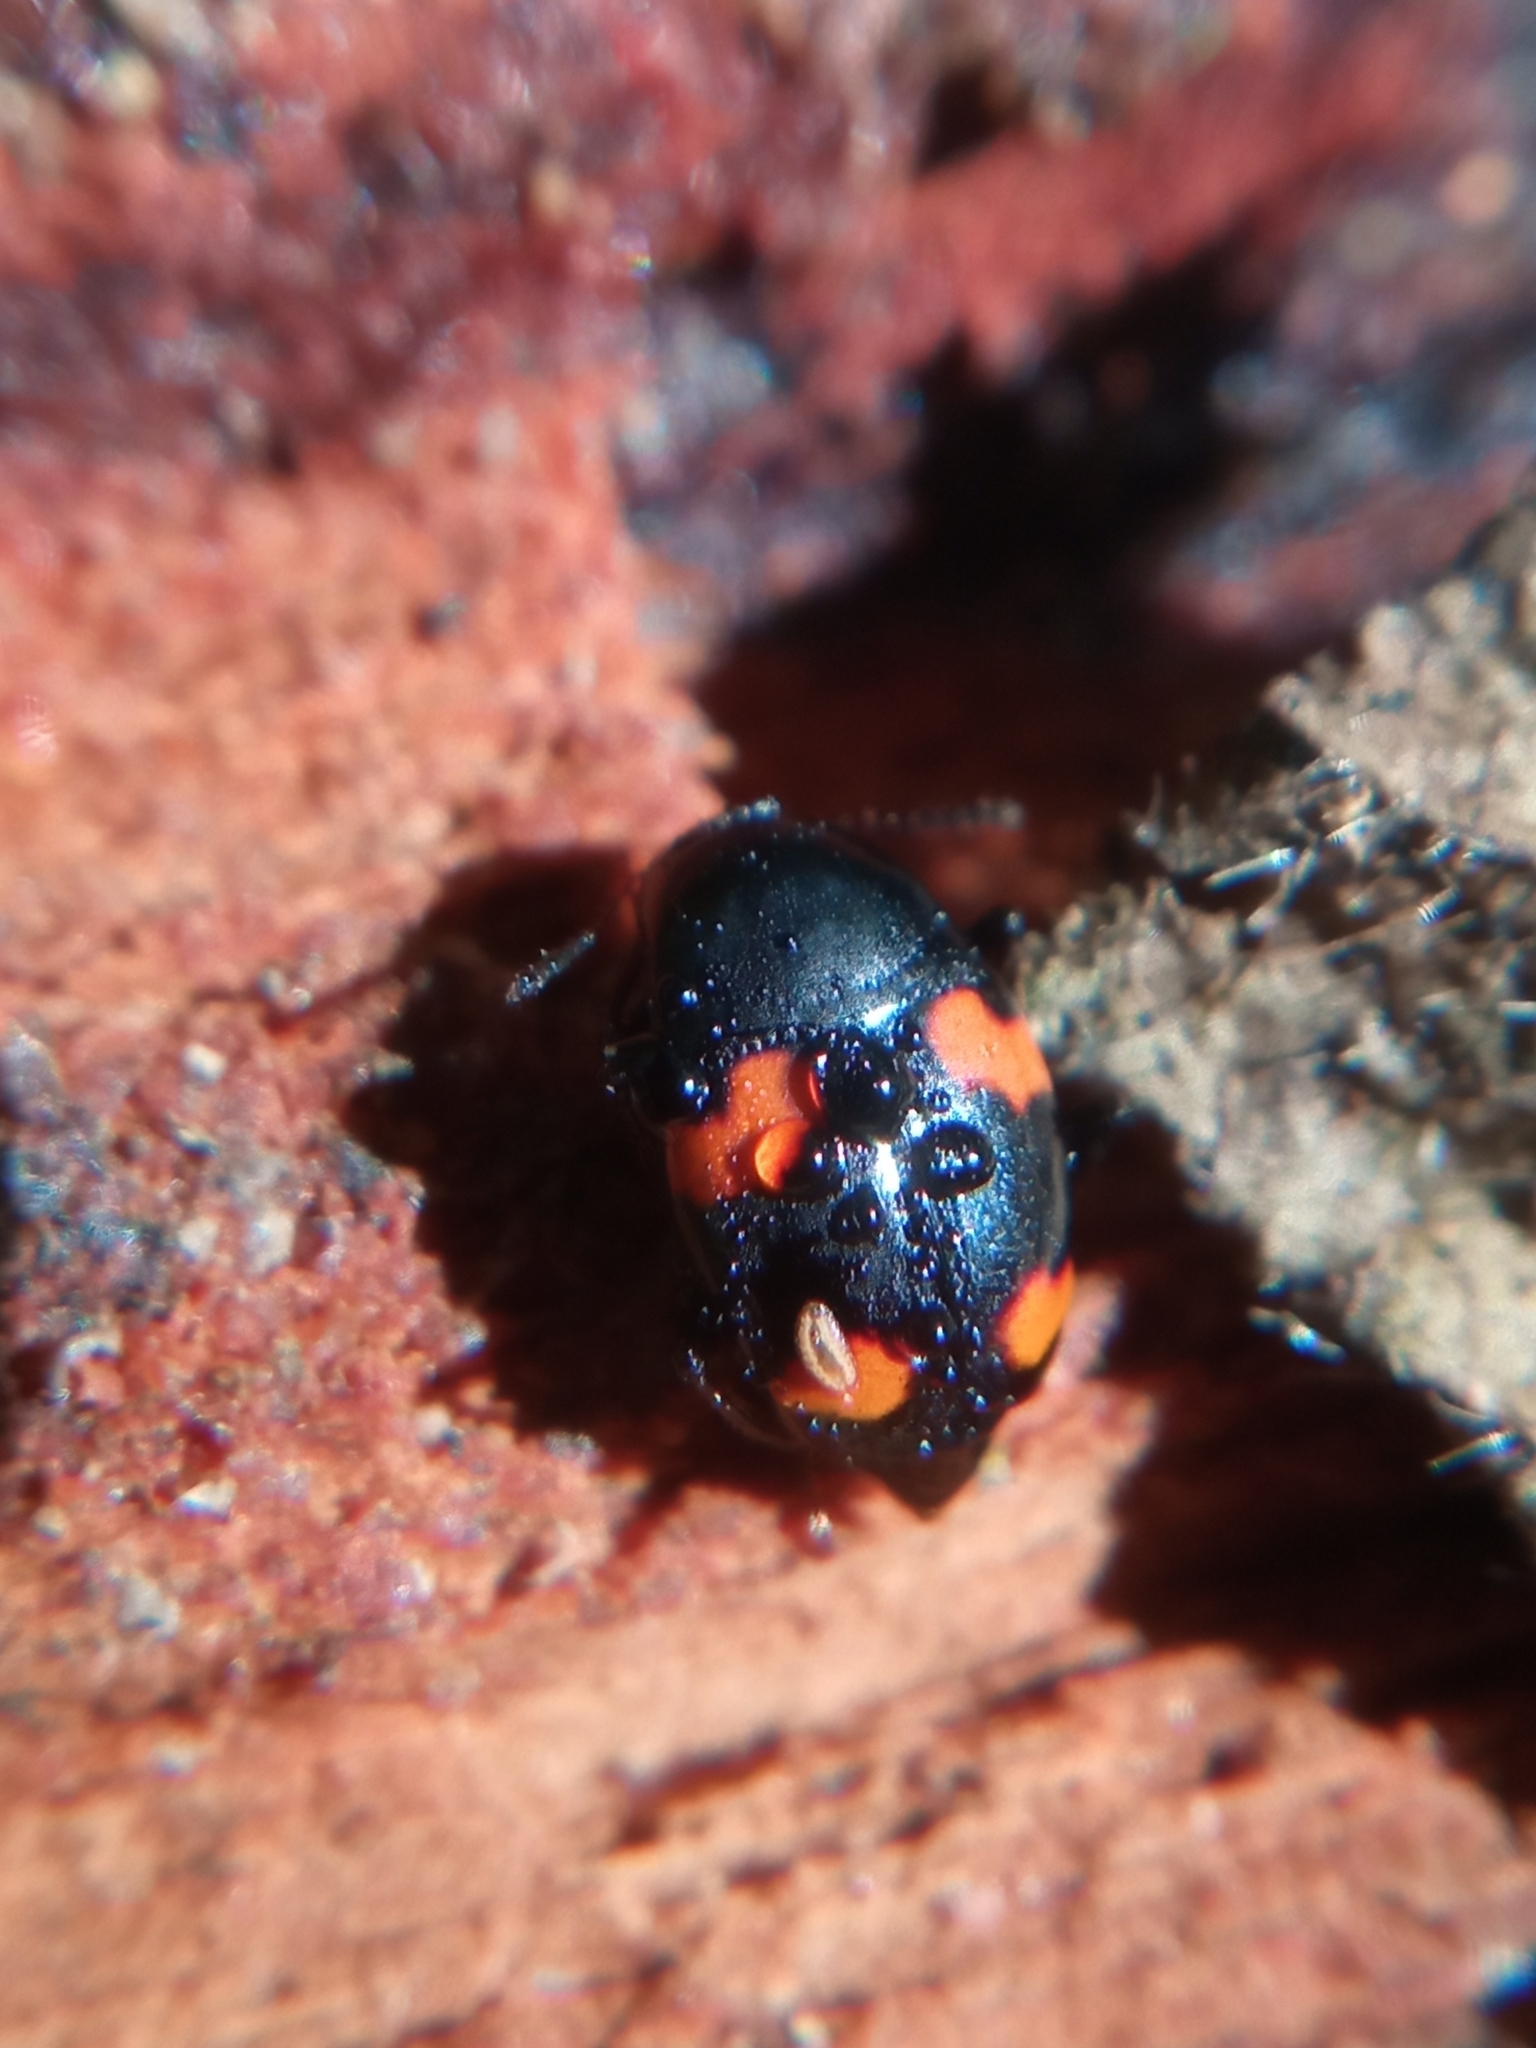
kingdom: Animalia
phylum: Arthropoda
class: Insecta
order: Coleoptera
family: Staphylinidae
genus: Scaphidium
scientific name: Scaphidium quadrimaculatum
